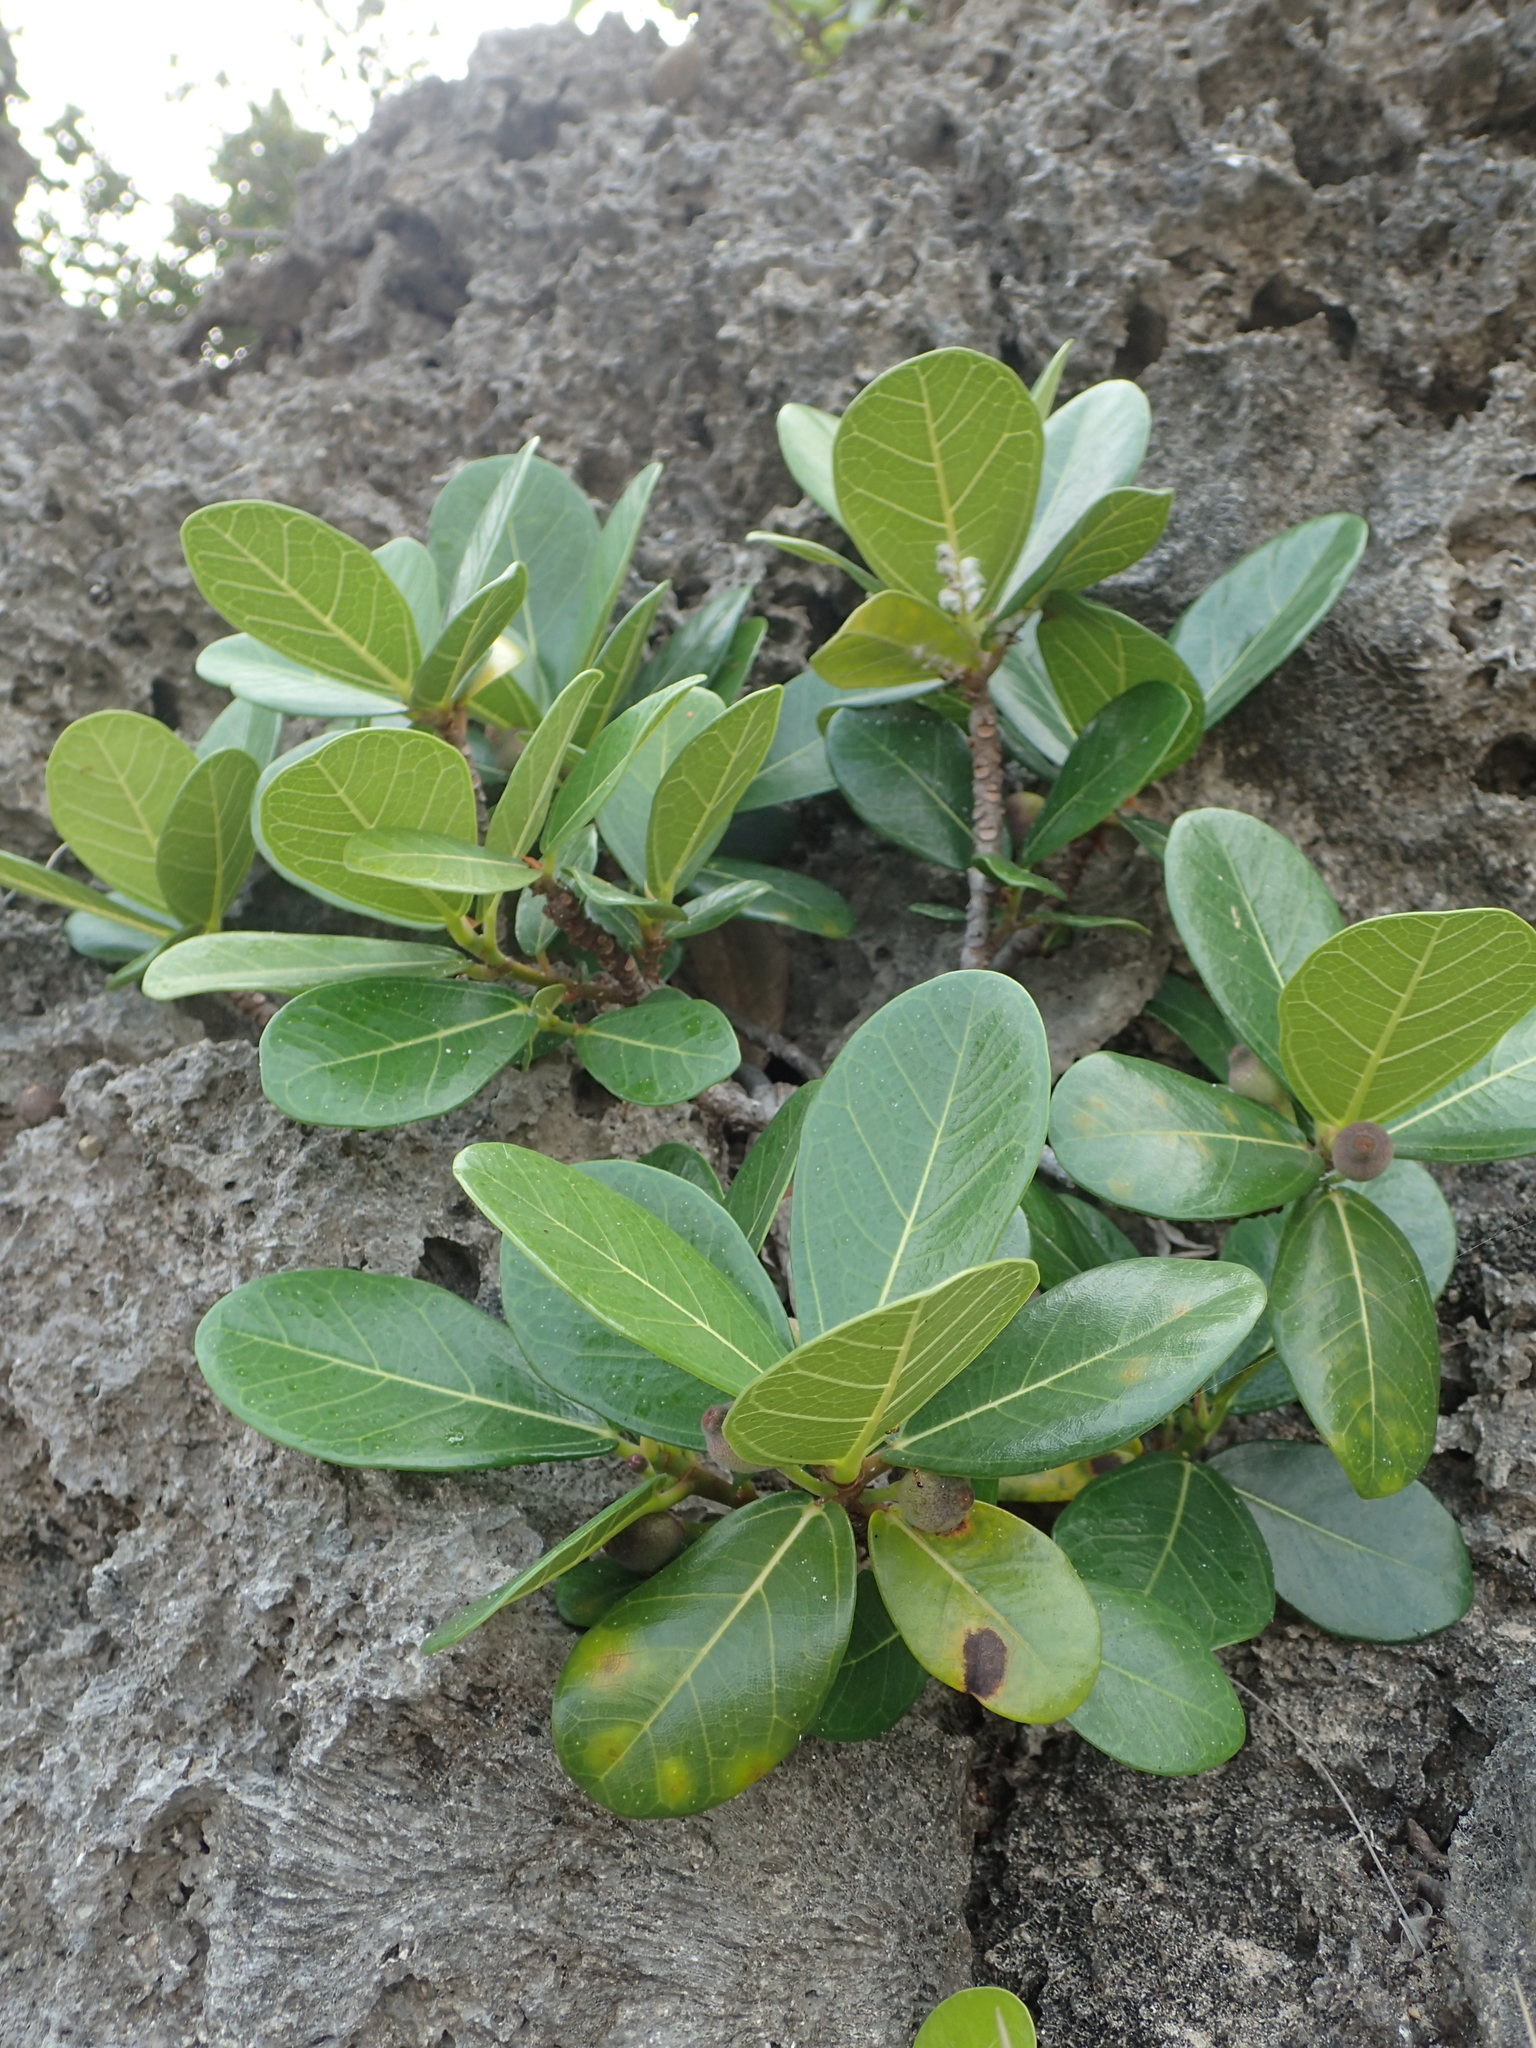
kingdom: Plantae
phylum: Tracheophyta
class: Magnoliopsida
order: Rosales
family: Moraceae
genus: Ficus
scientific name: Ficus pedunculosa
